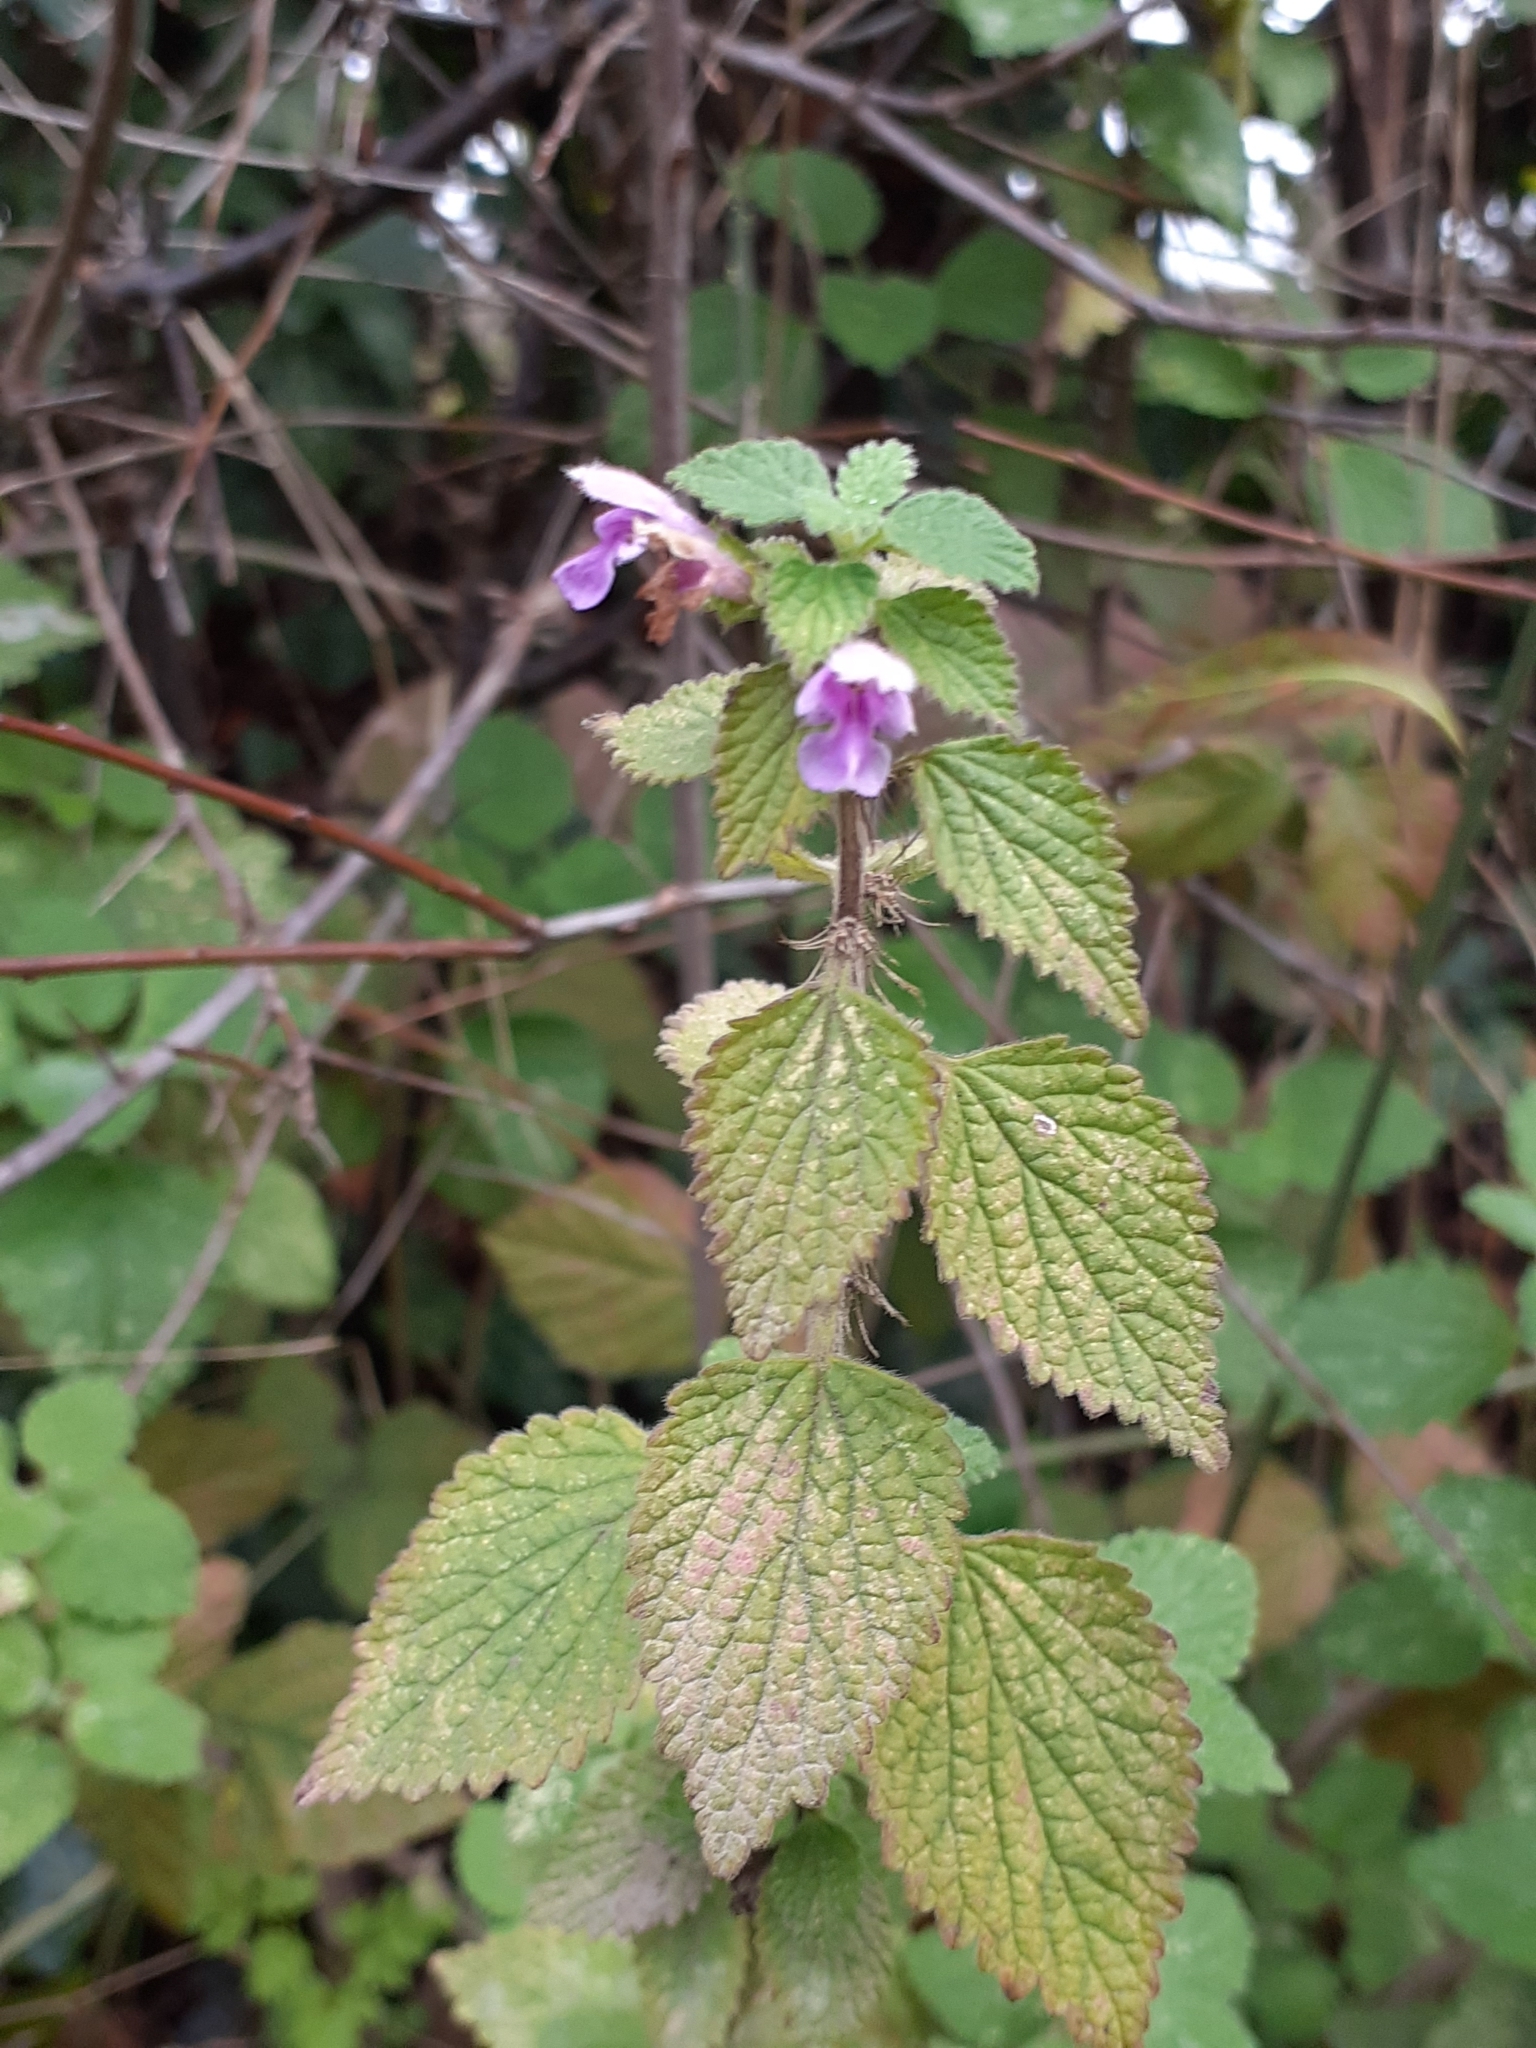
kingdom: Plantae
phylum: Tracheophyta
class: Magnoliopsida
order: Lamiales
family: Lamiaceae
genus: Ballota
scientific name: Ballota nigra
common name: Black horehound
